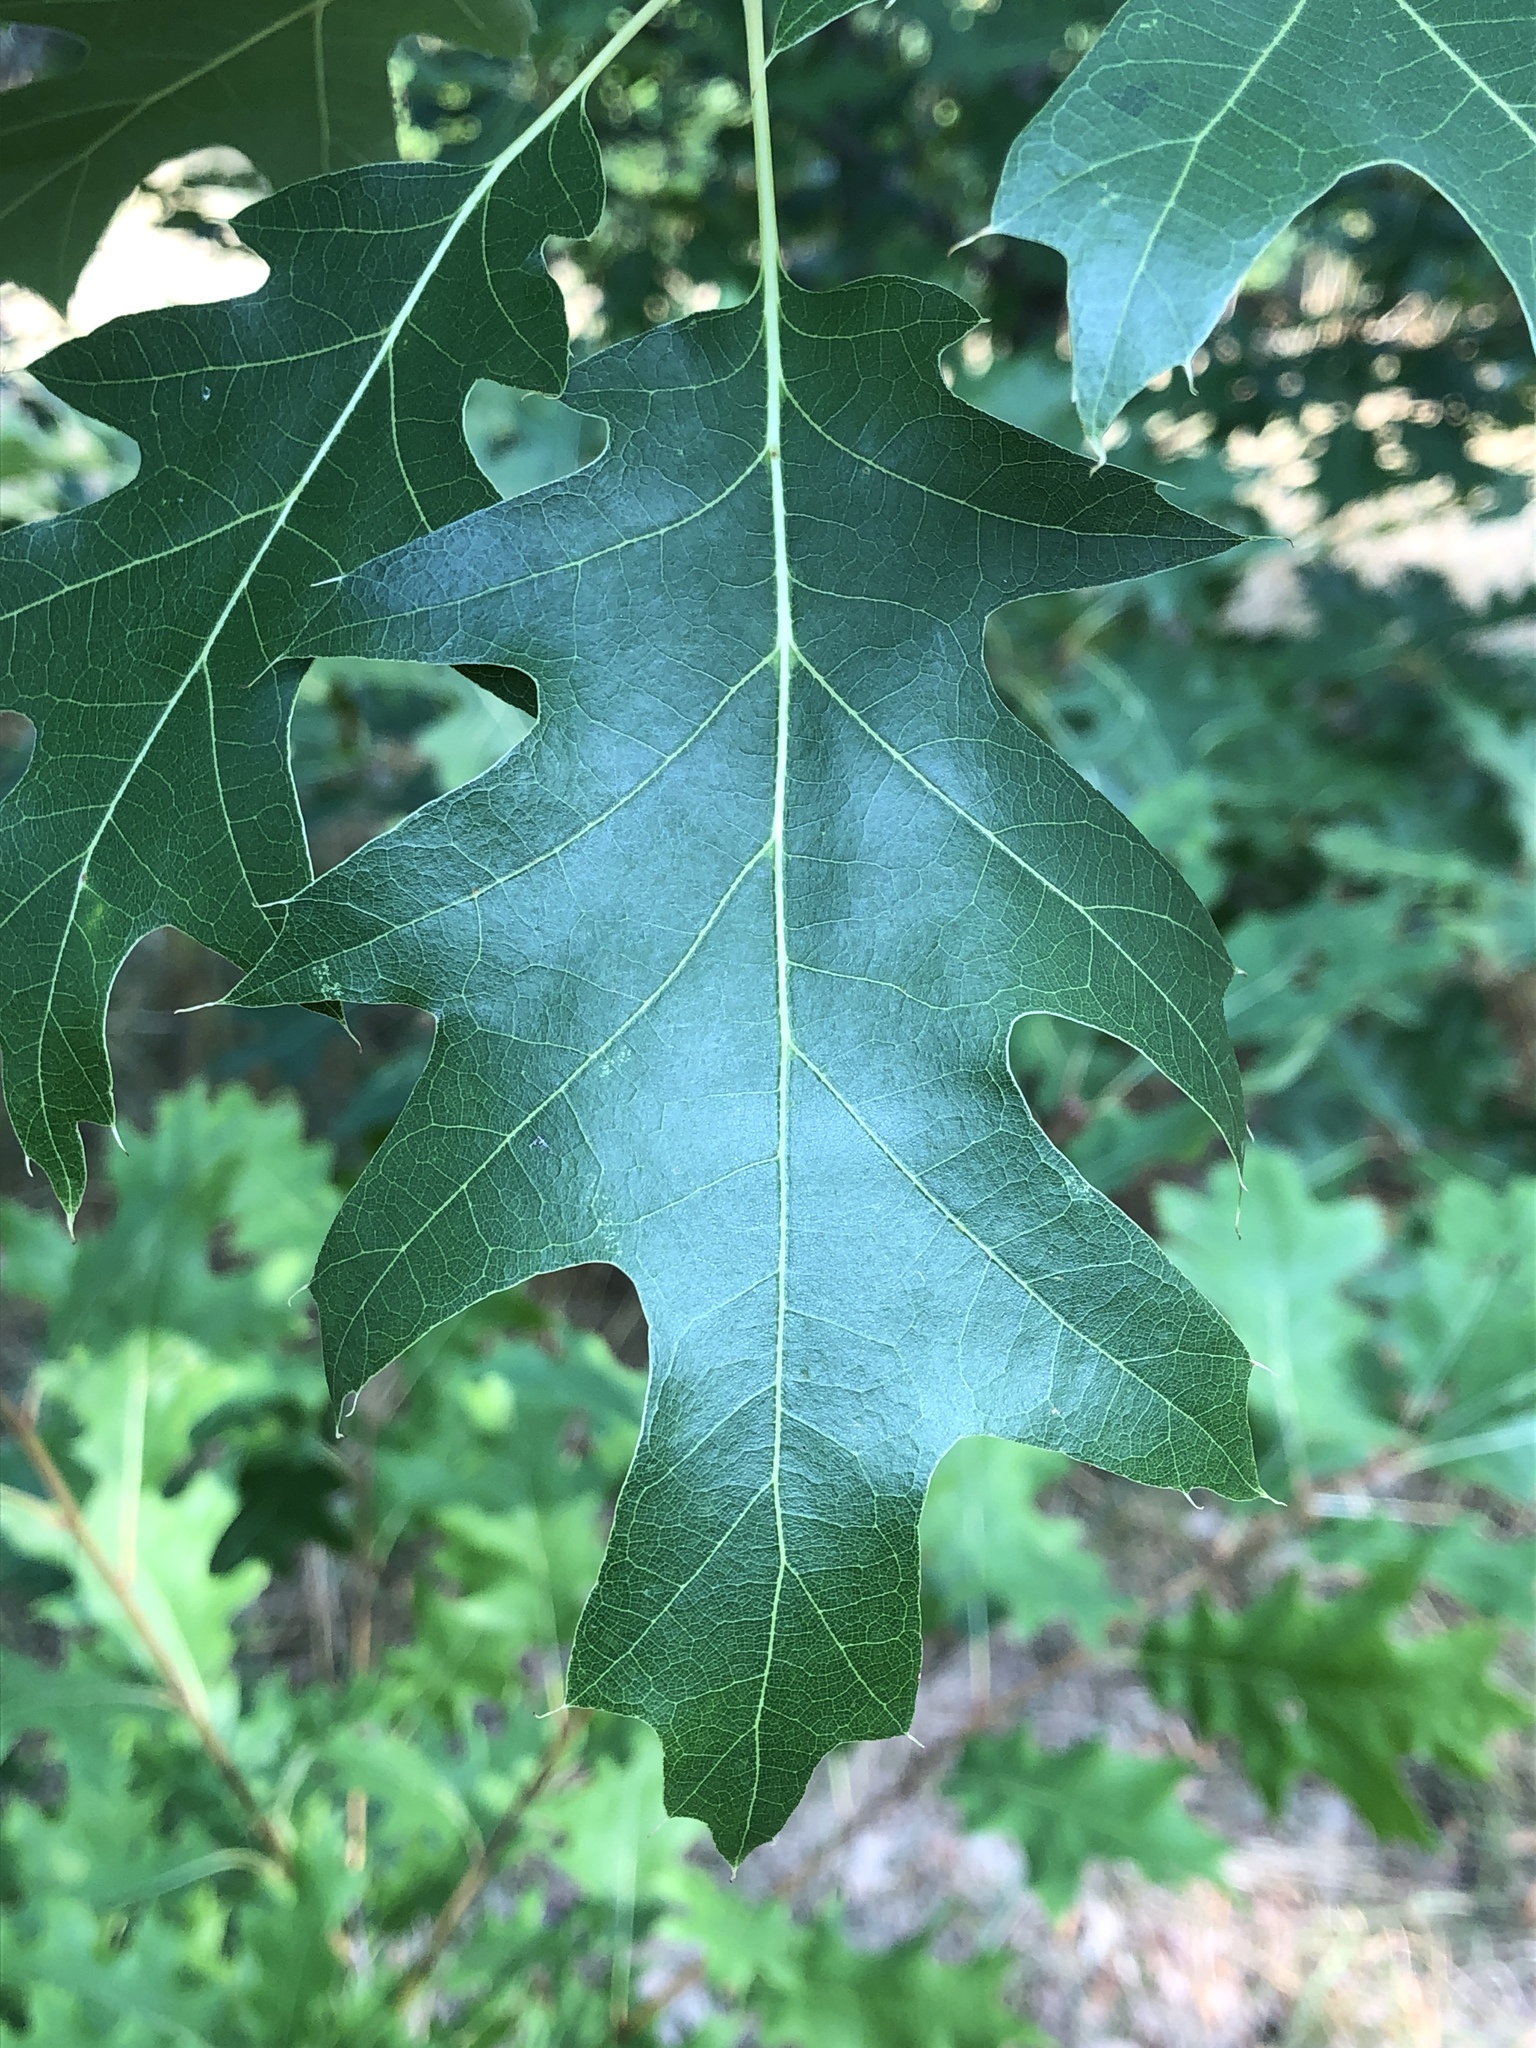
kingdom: Plantae
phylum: Tracheophyta
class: Magnoliopsida
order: Fagales
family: Fagaceae
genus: Quercus
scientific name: Quercus rubra
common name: Red oak
